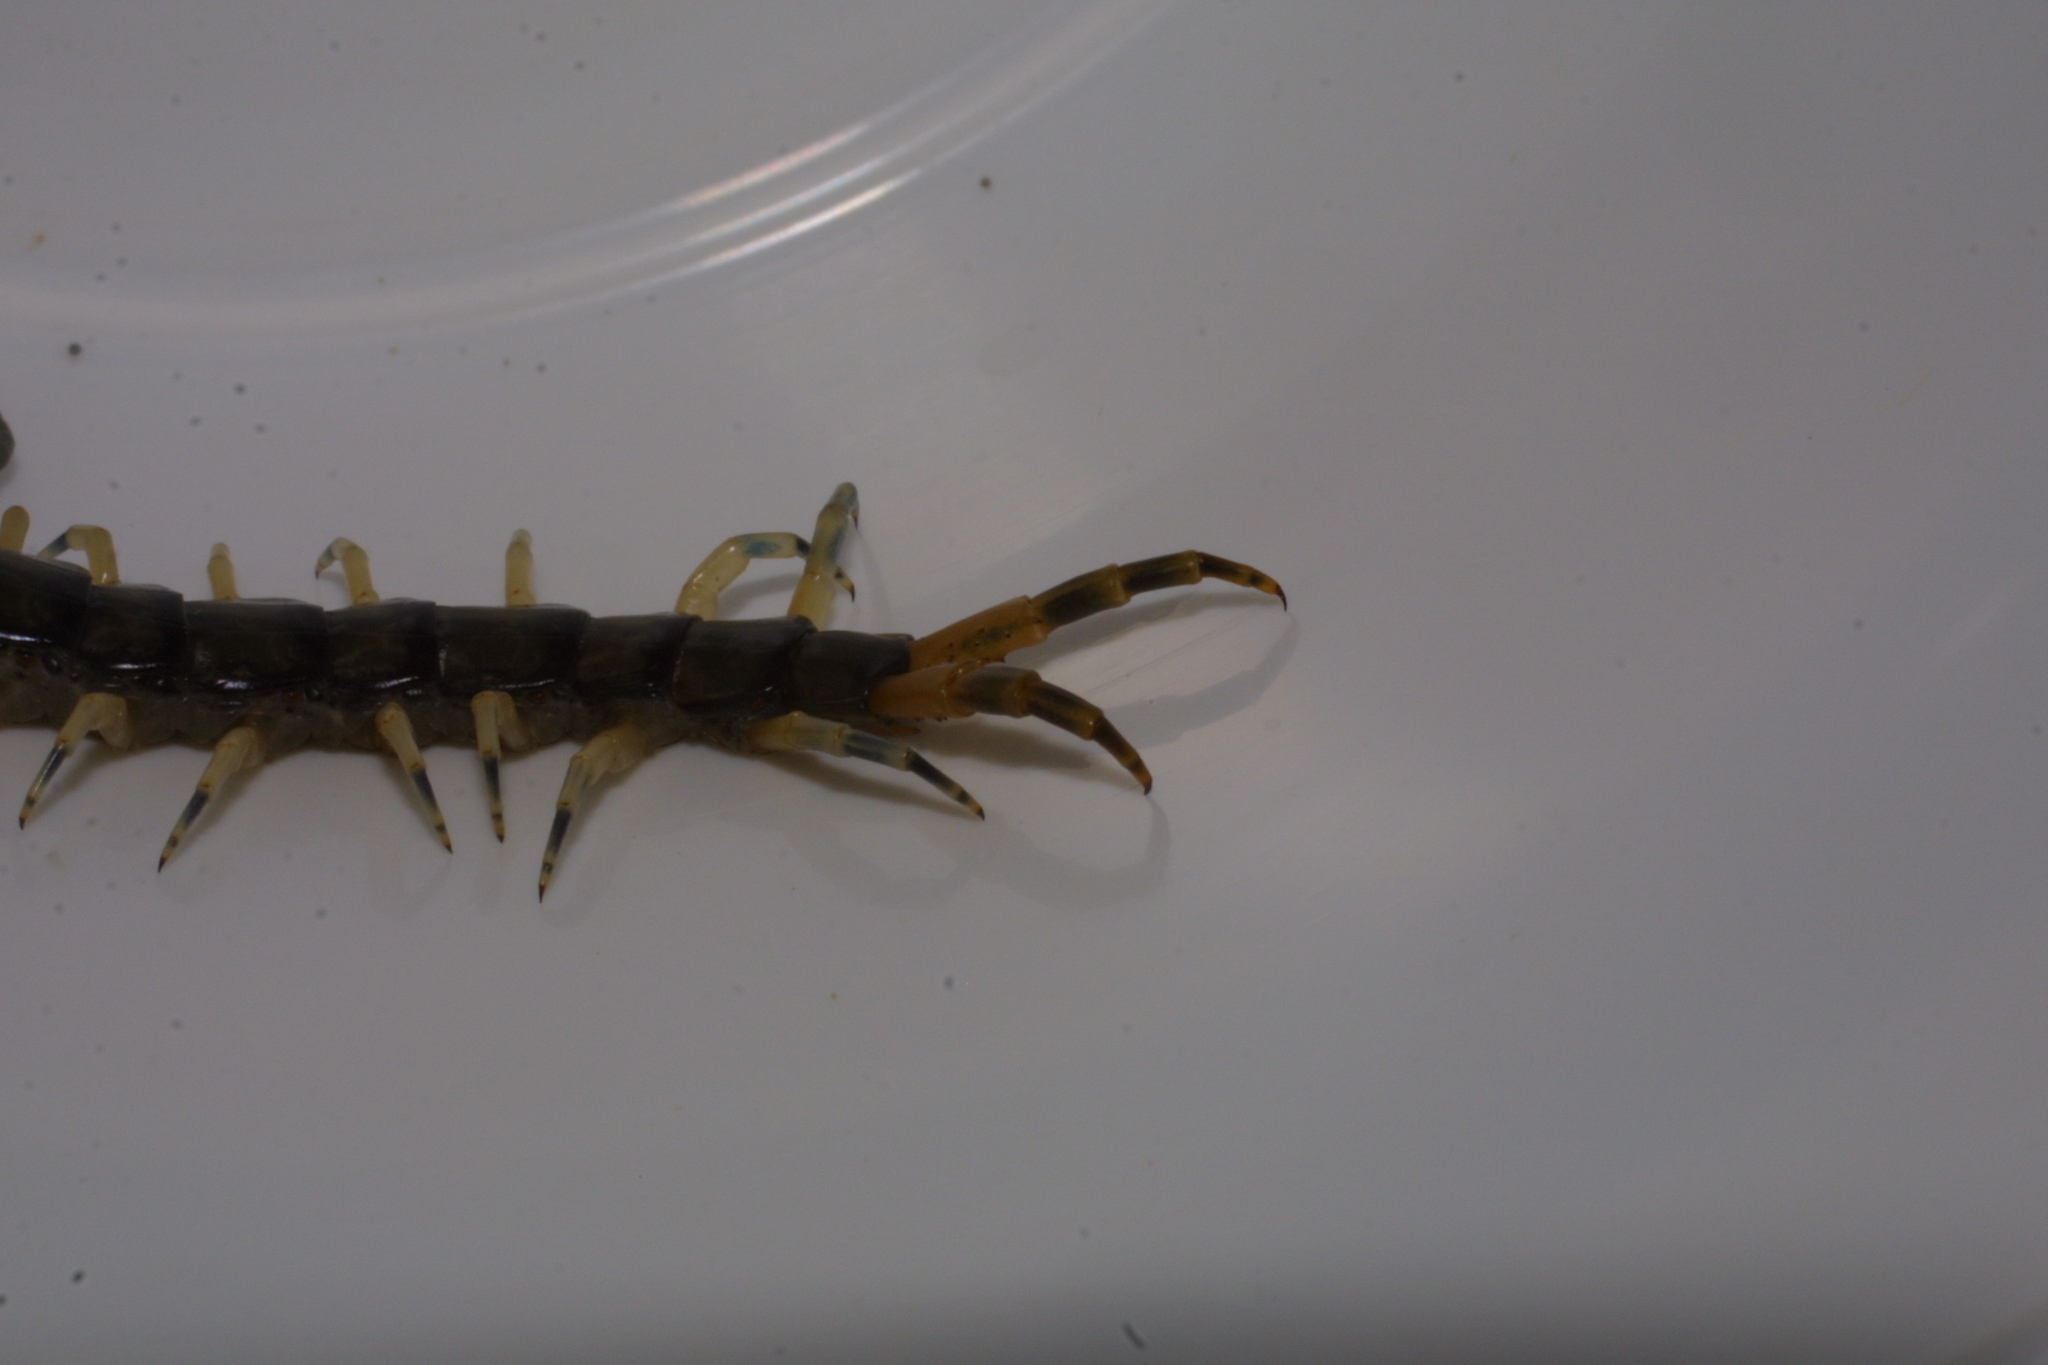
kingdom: Animalia
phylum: Arthropoda
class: Chilopoda
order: Scolopendromorpha
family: Scolopendridae
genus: Hemiscolopendra
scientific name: Hemiscolopendra marginata
